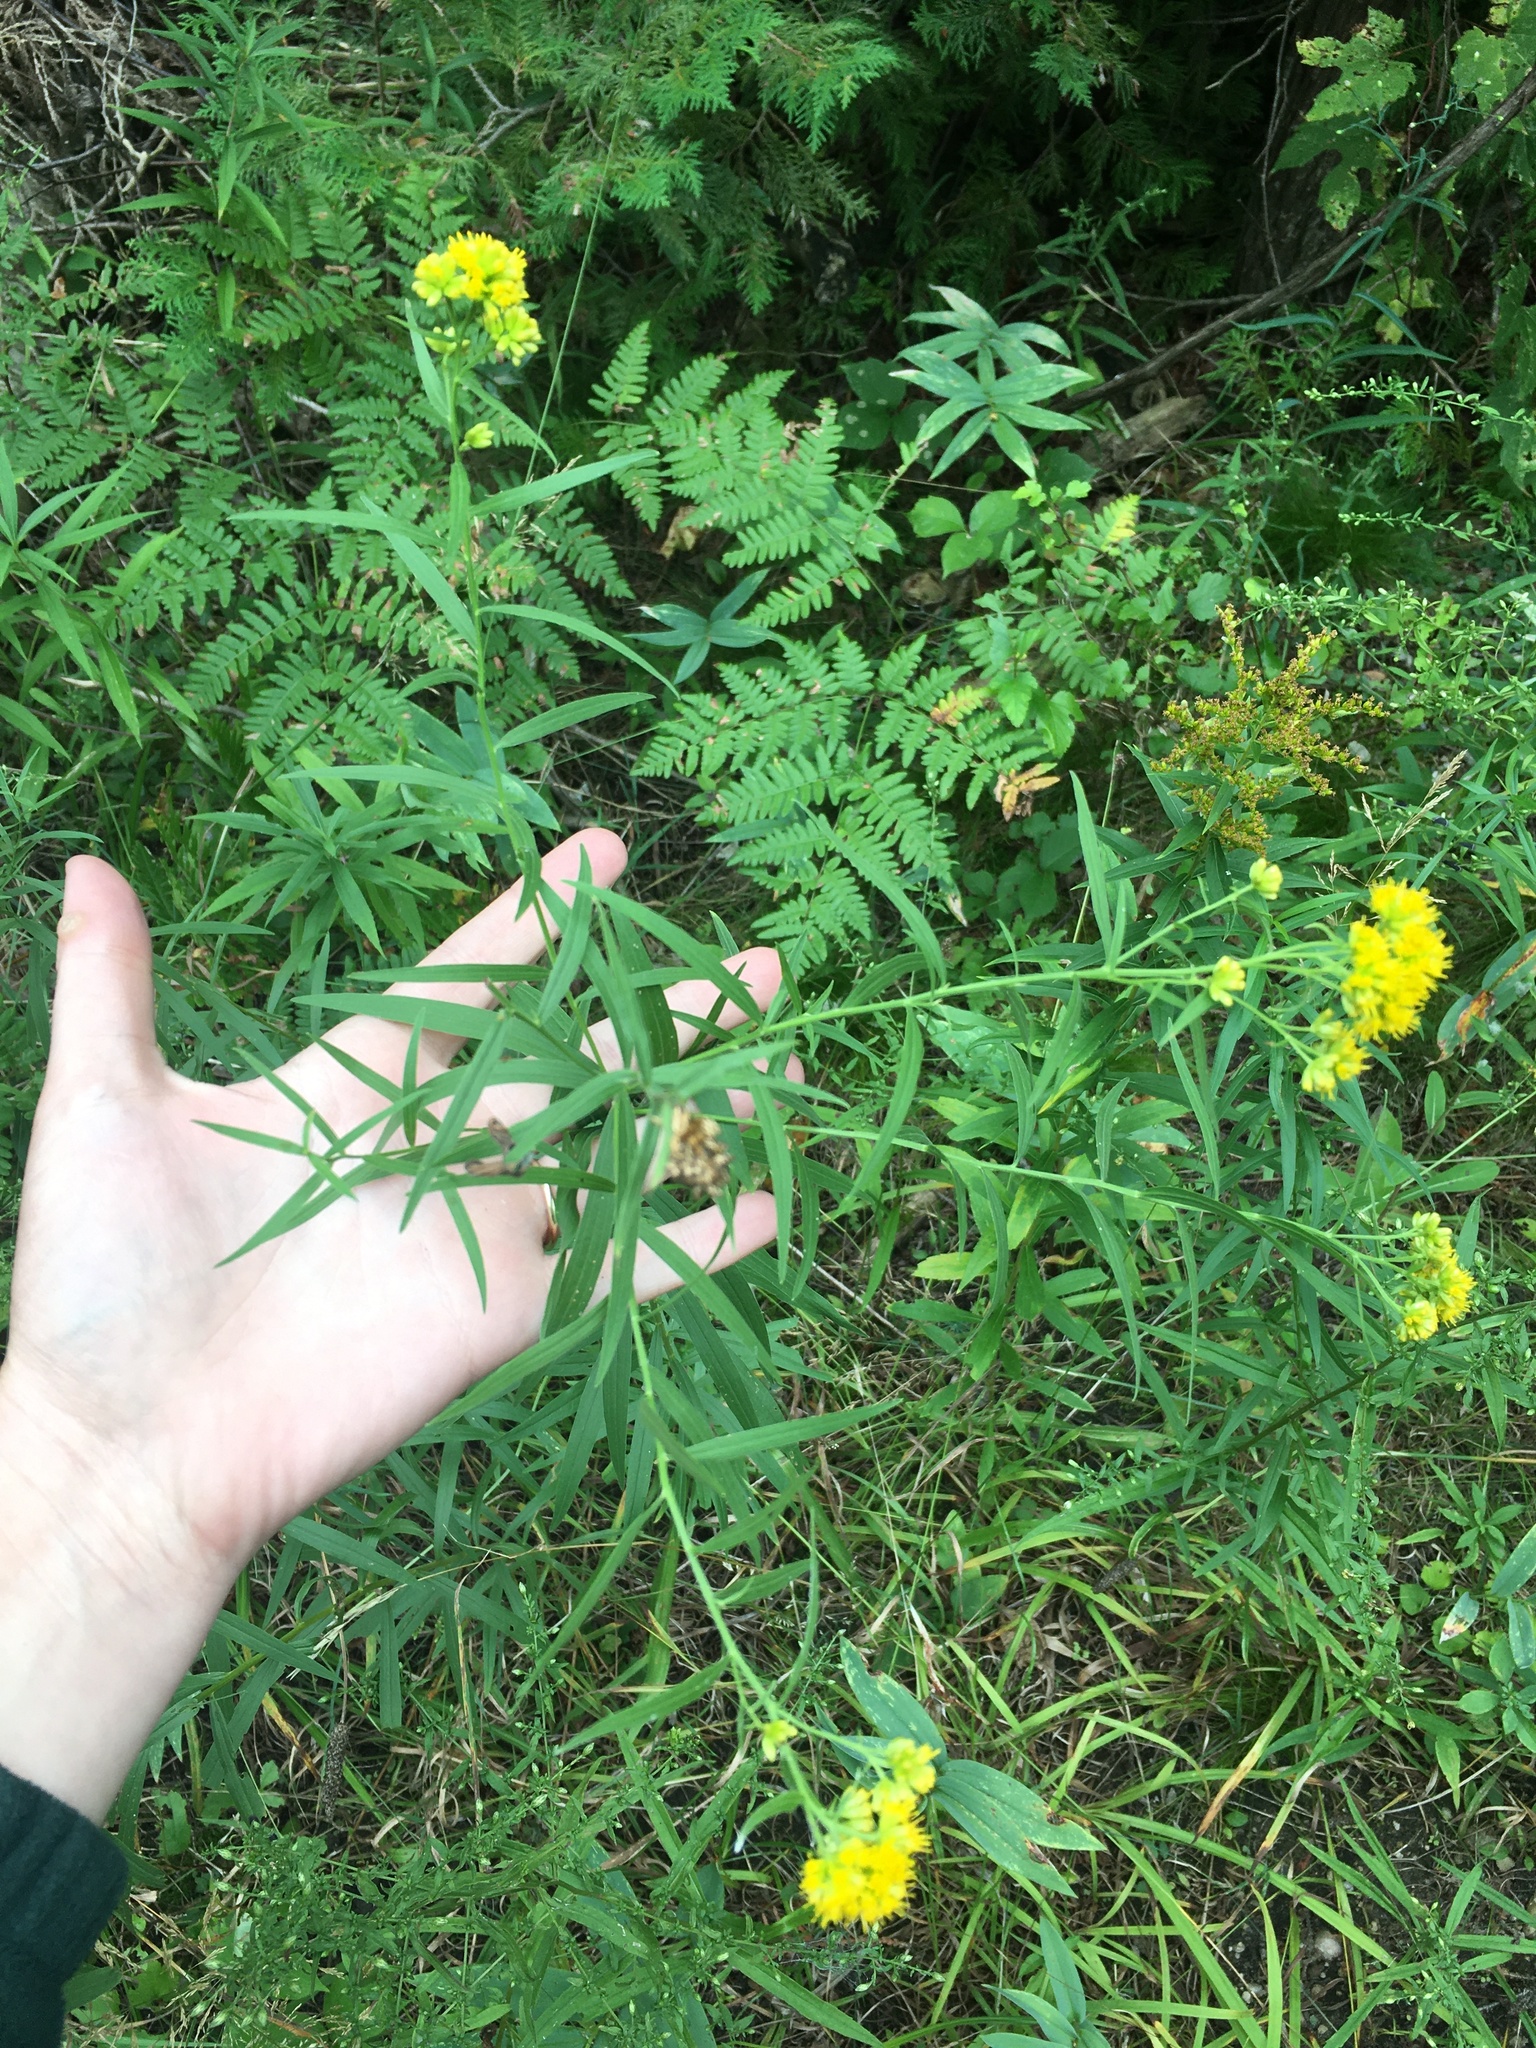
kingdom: Plantae
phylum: Tracheophyta
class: Magnoliopsida
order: Asterales
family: Asteraceae
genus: Euthamia
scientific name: Euthamia graminifolia
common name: Common goldentop
